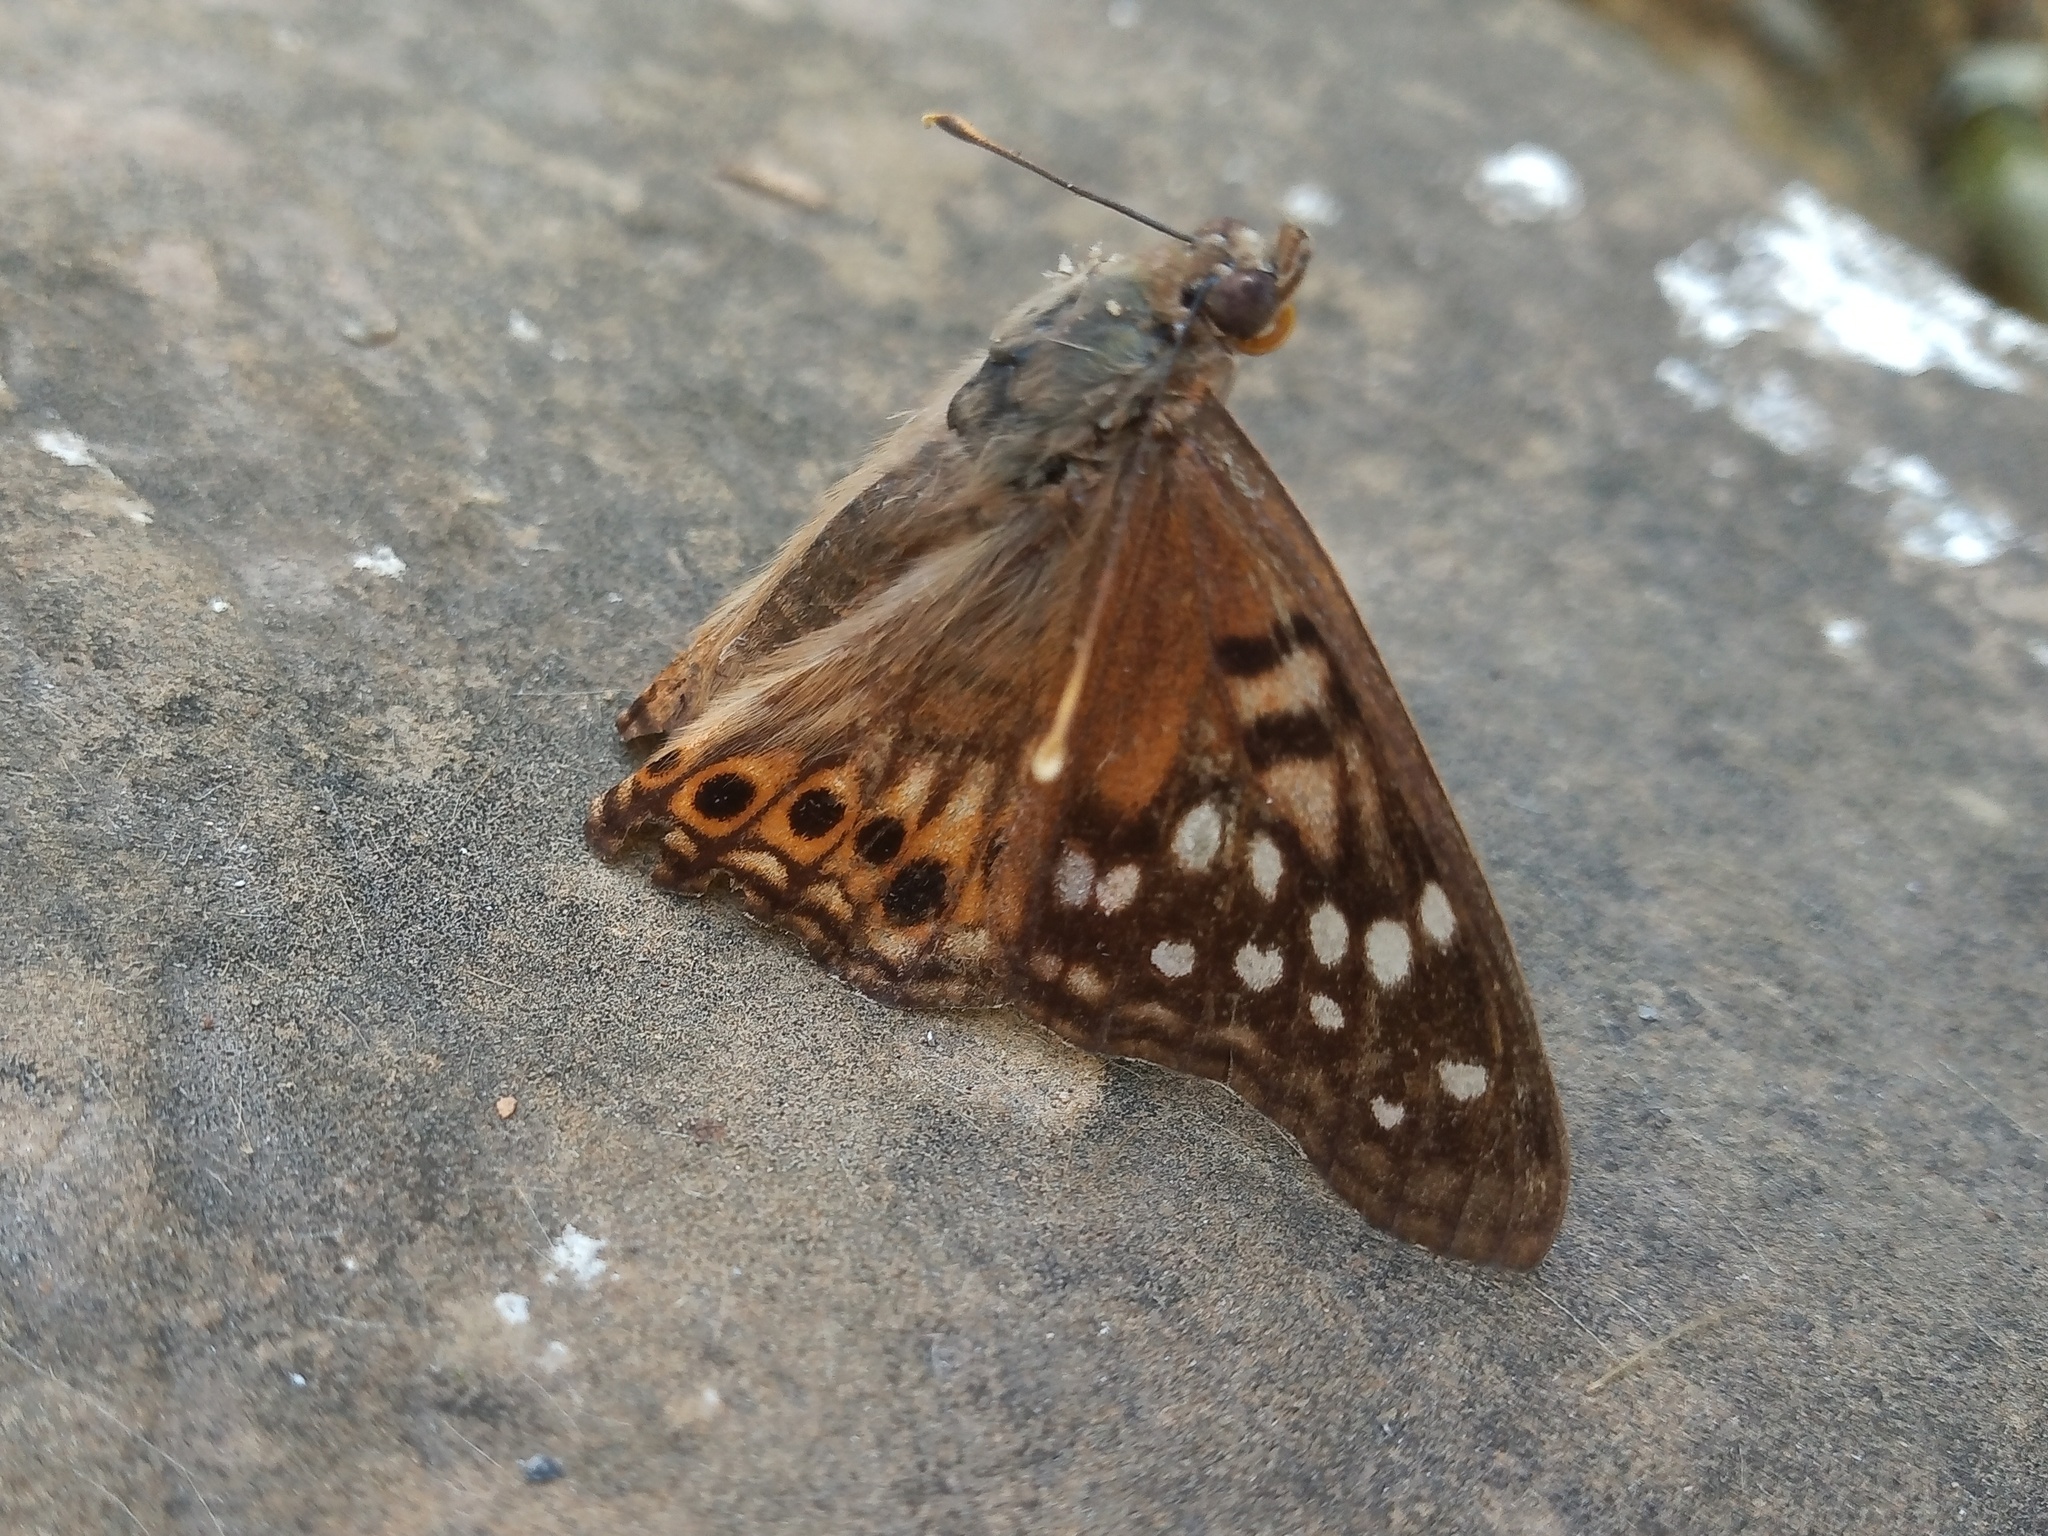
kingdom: Animalia
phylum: Arthropoda
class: Insecta
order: Lepidoptera
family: Nymphalidae
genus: Asterocampa
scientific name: Asterocampa clyton
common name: Tawny emperor
